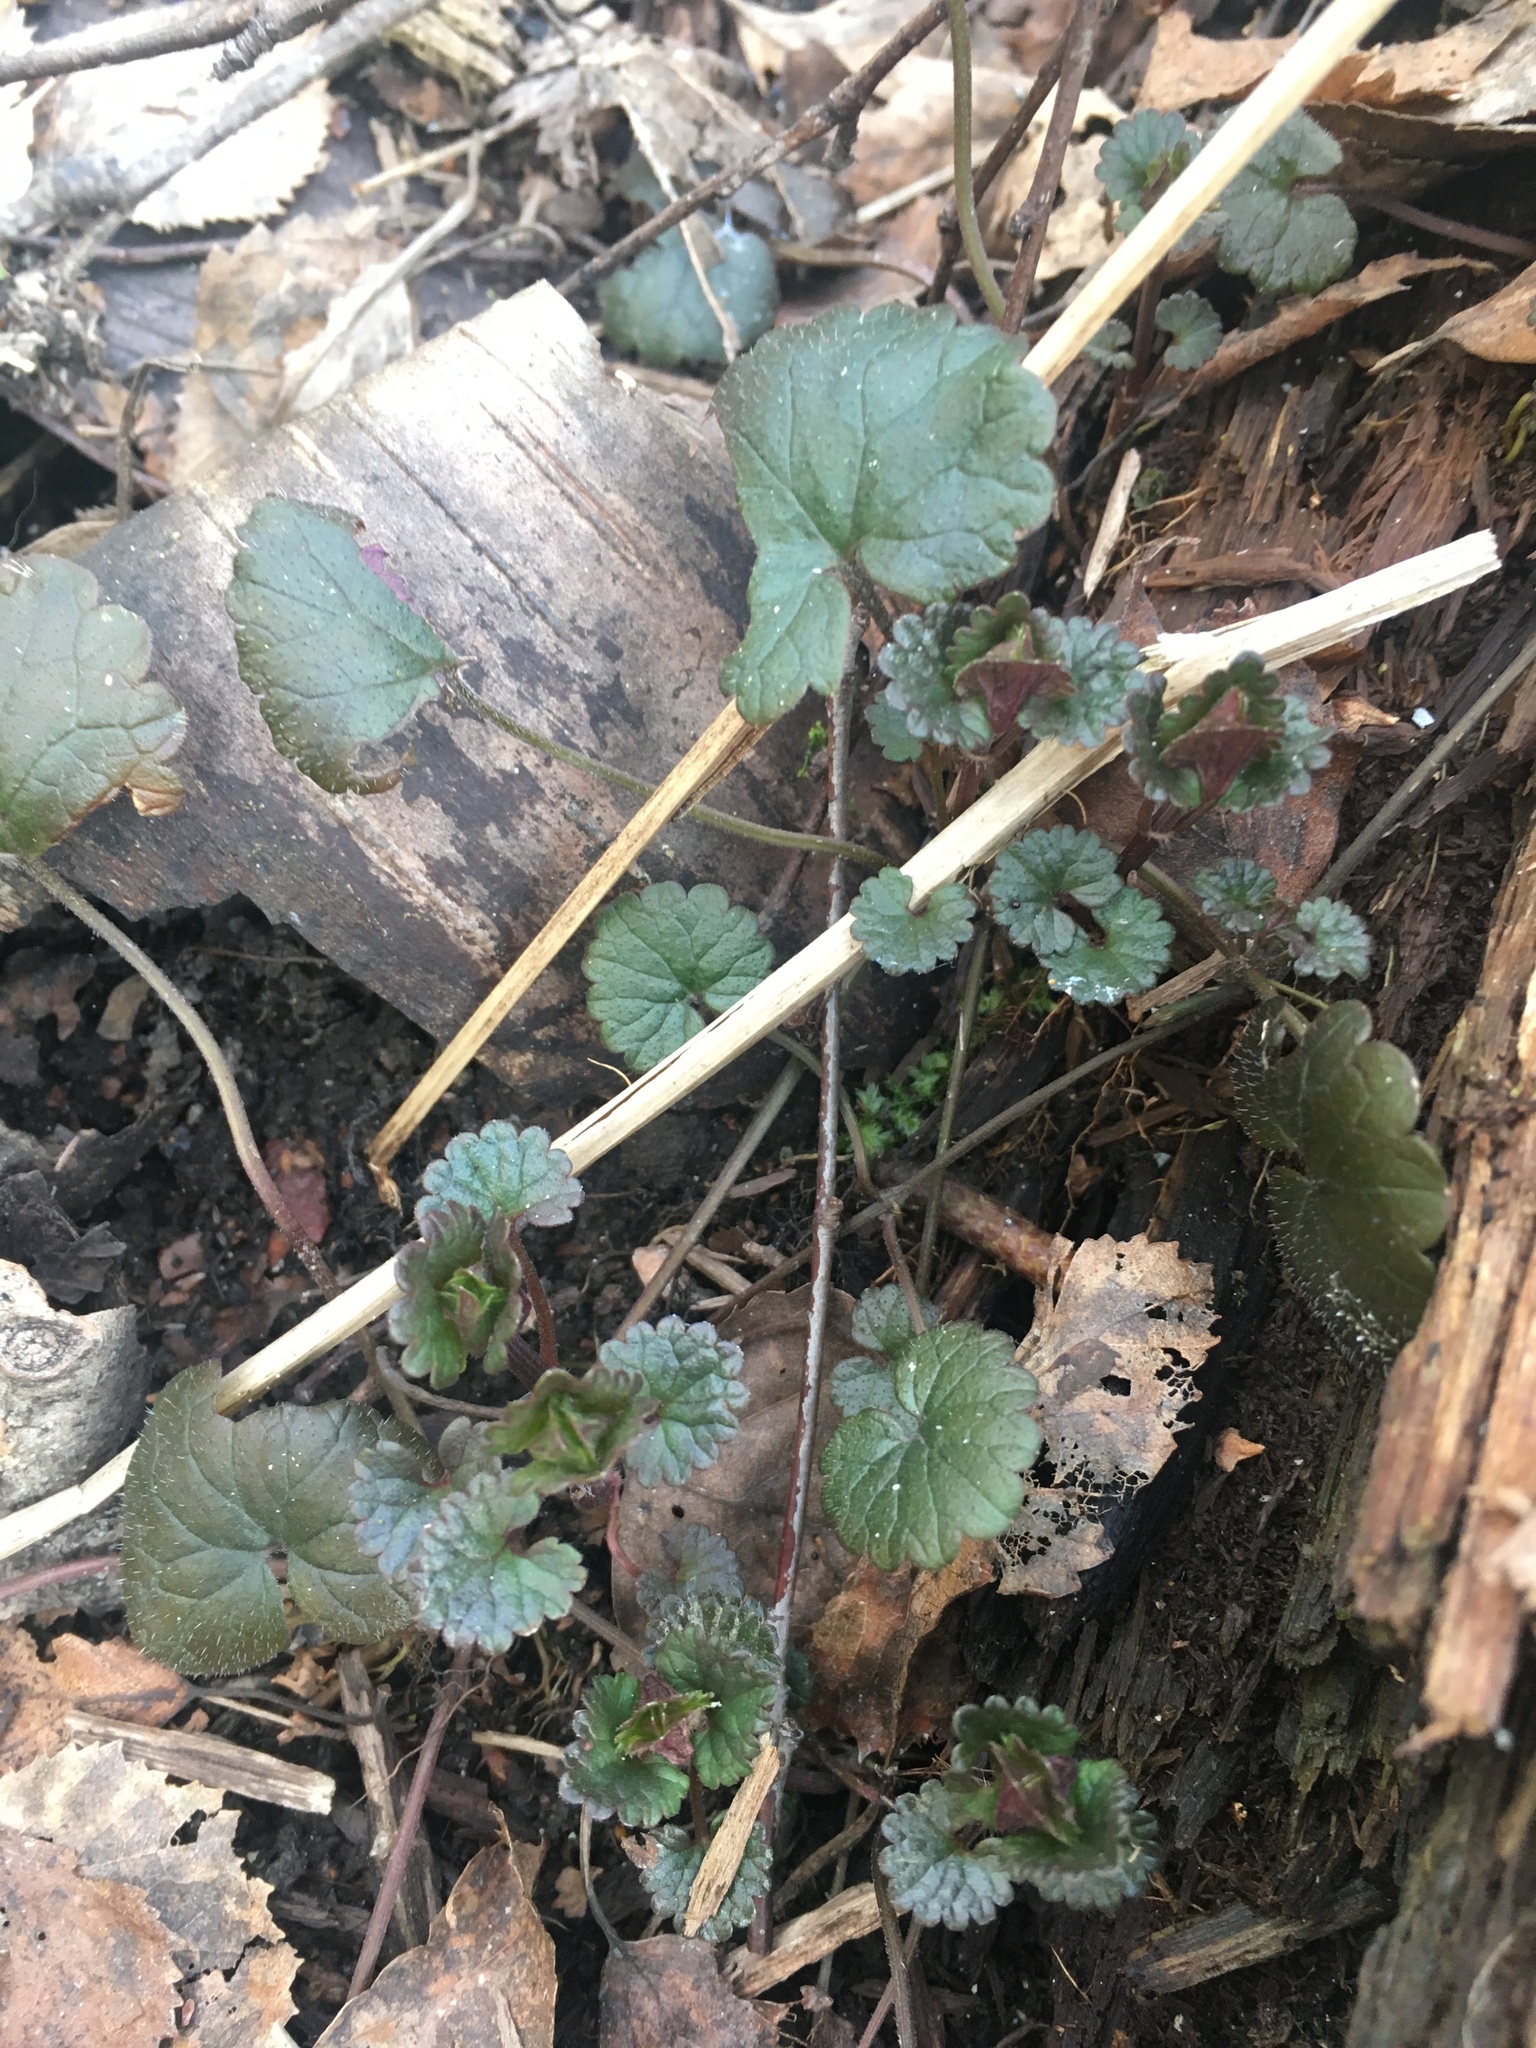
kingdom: Plantae
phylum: Tracheophyta
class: Magnoliopsida
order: Lamiales
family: Lamiaceae
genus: Glechoma
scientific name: Glechoma hederacea
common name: Ground ivy
